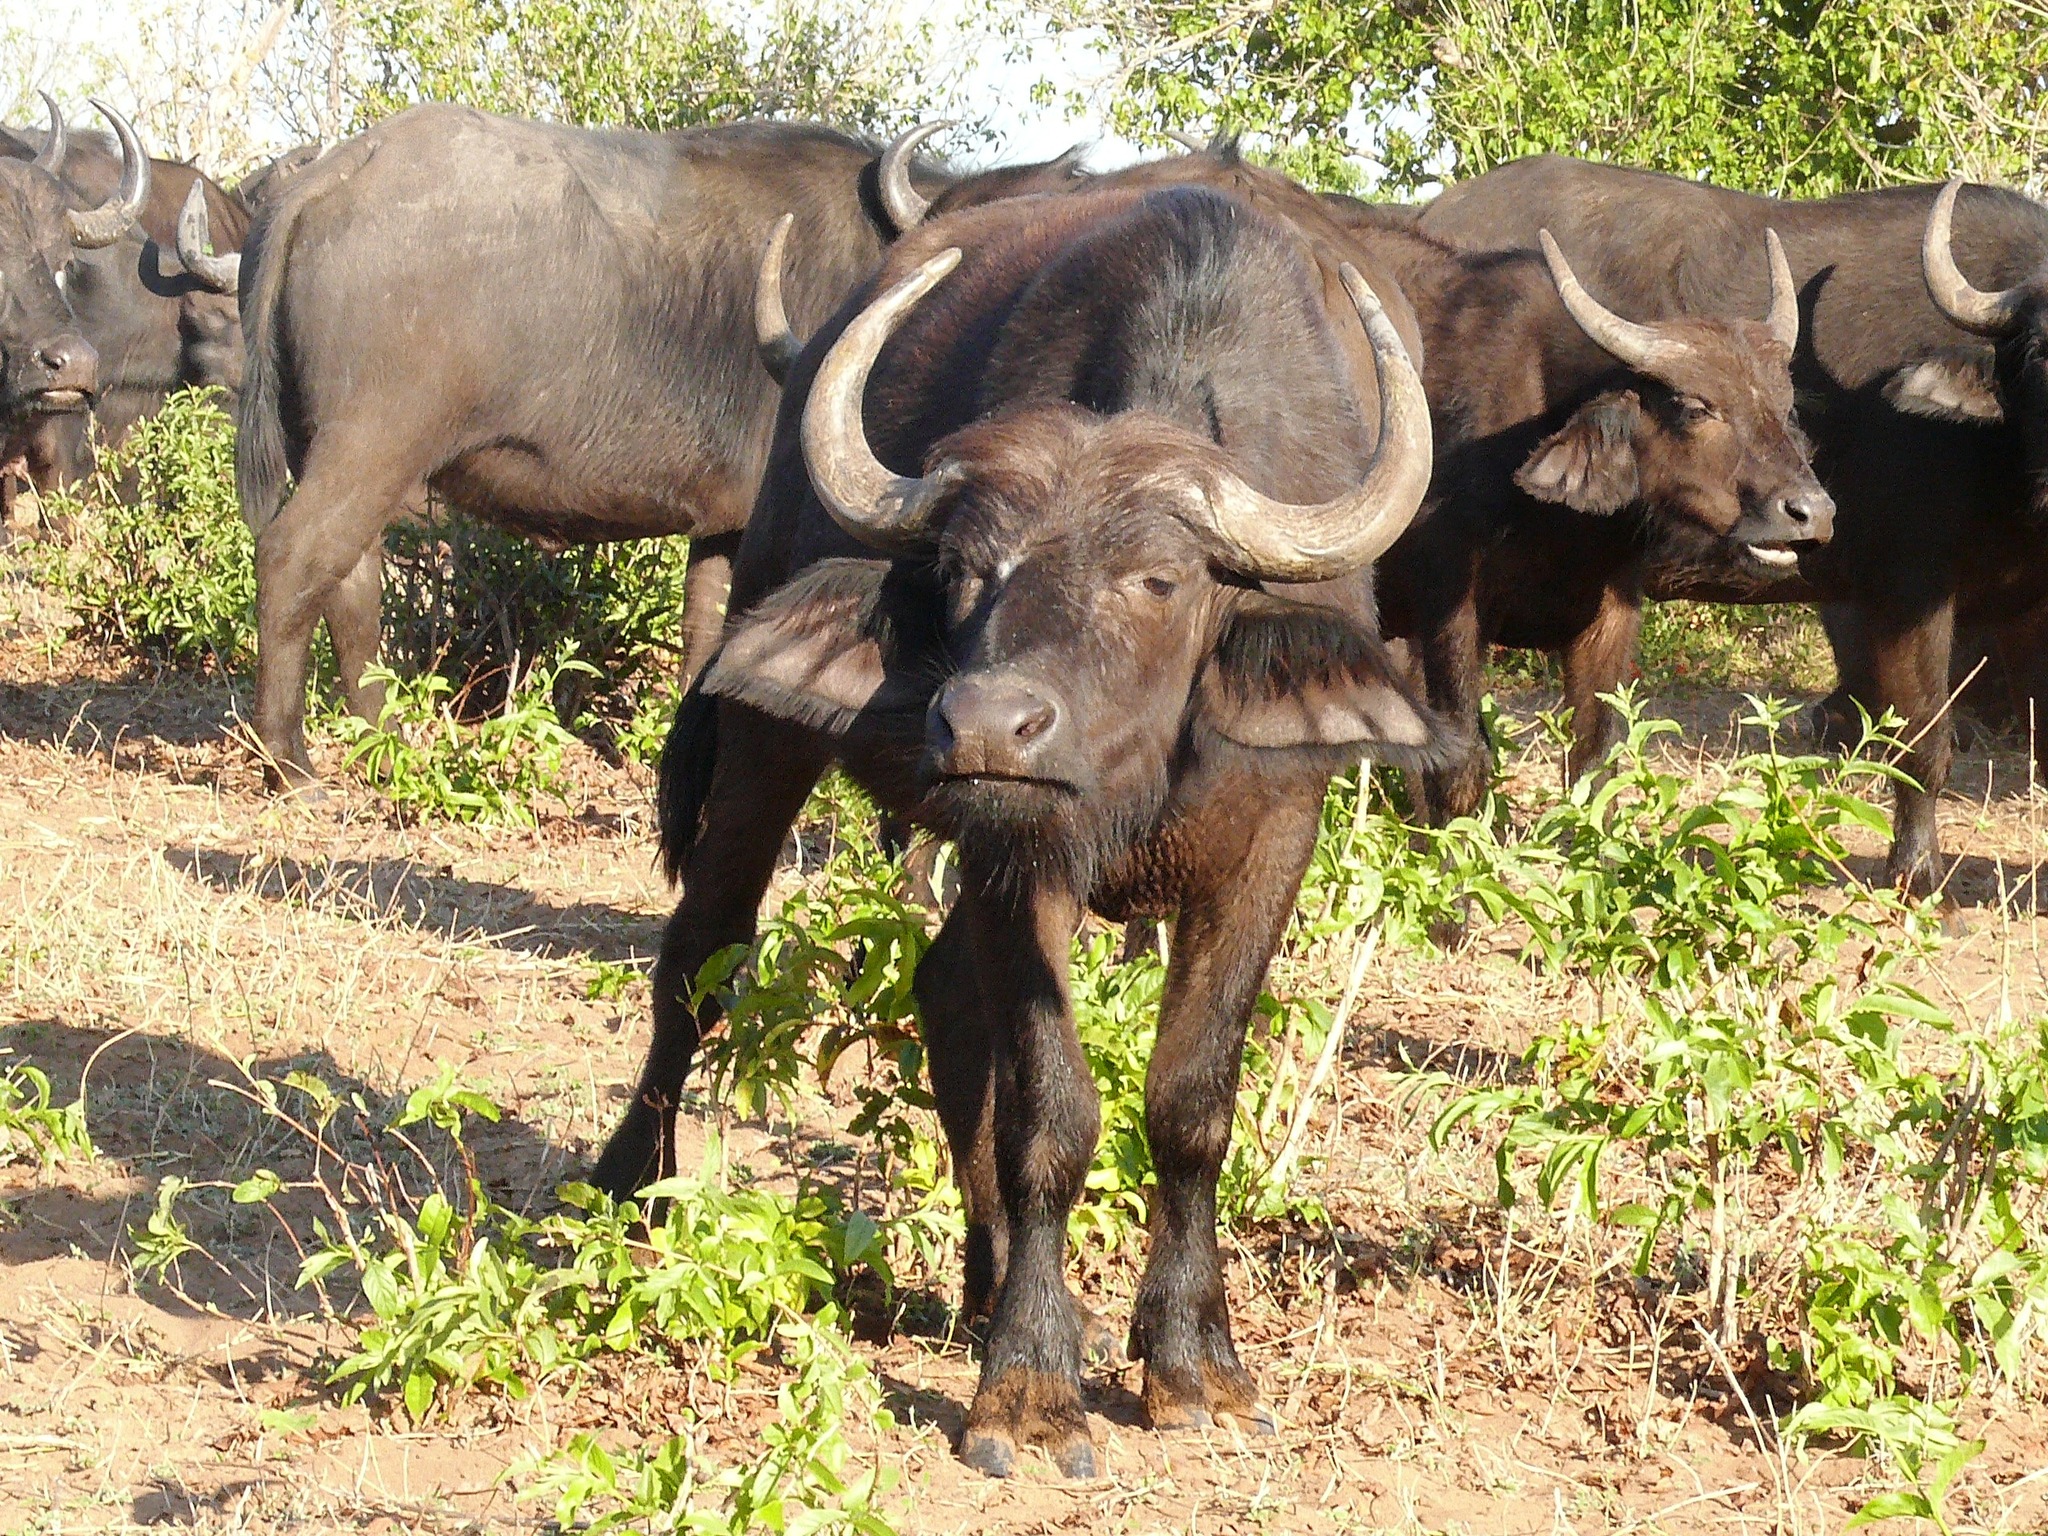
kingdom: Animalia
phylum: Chordata
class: Mammalia
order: Artiodactyla
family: Bovidae
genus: Syncerus
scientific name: Syncerus caffer
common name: African buffalo
